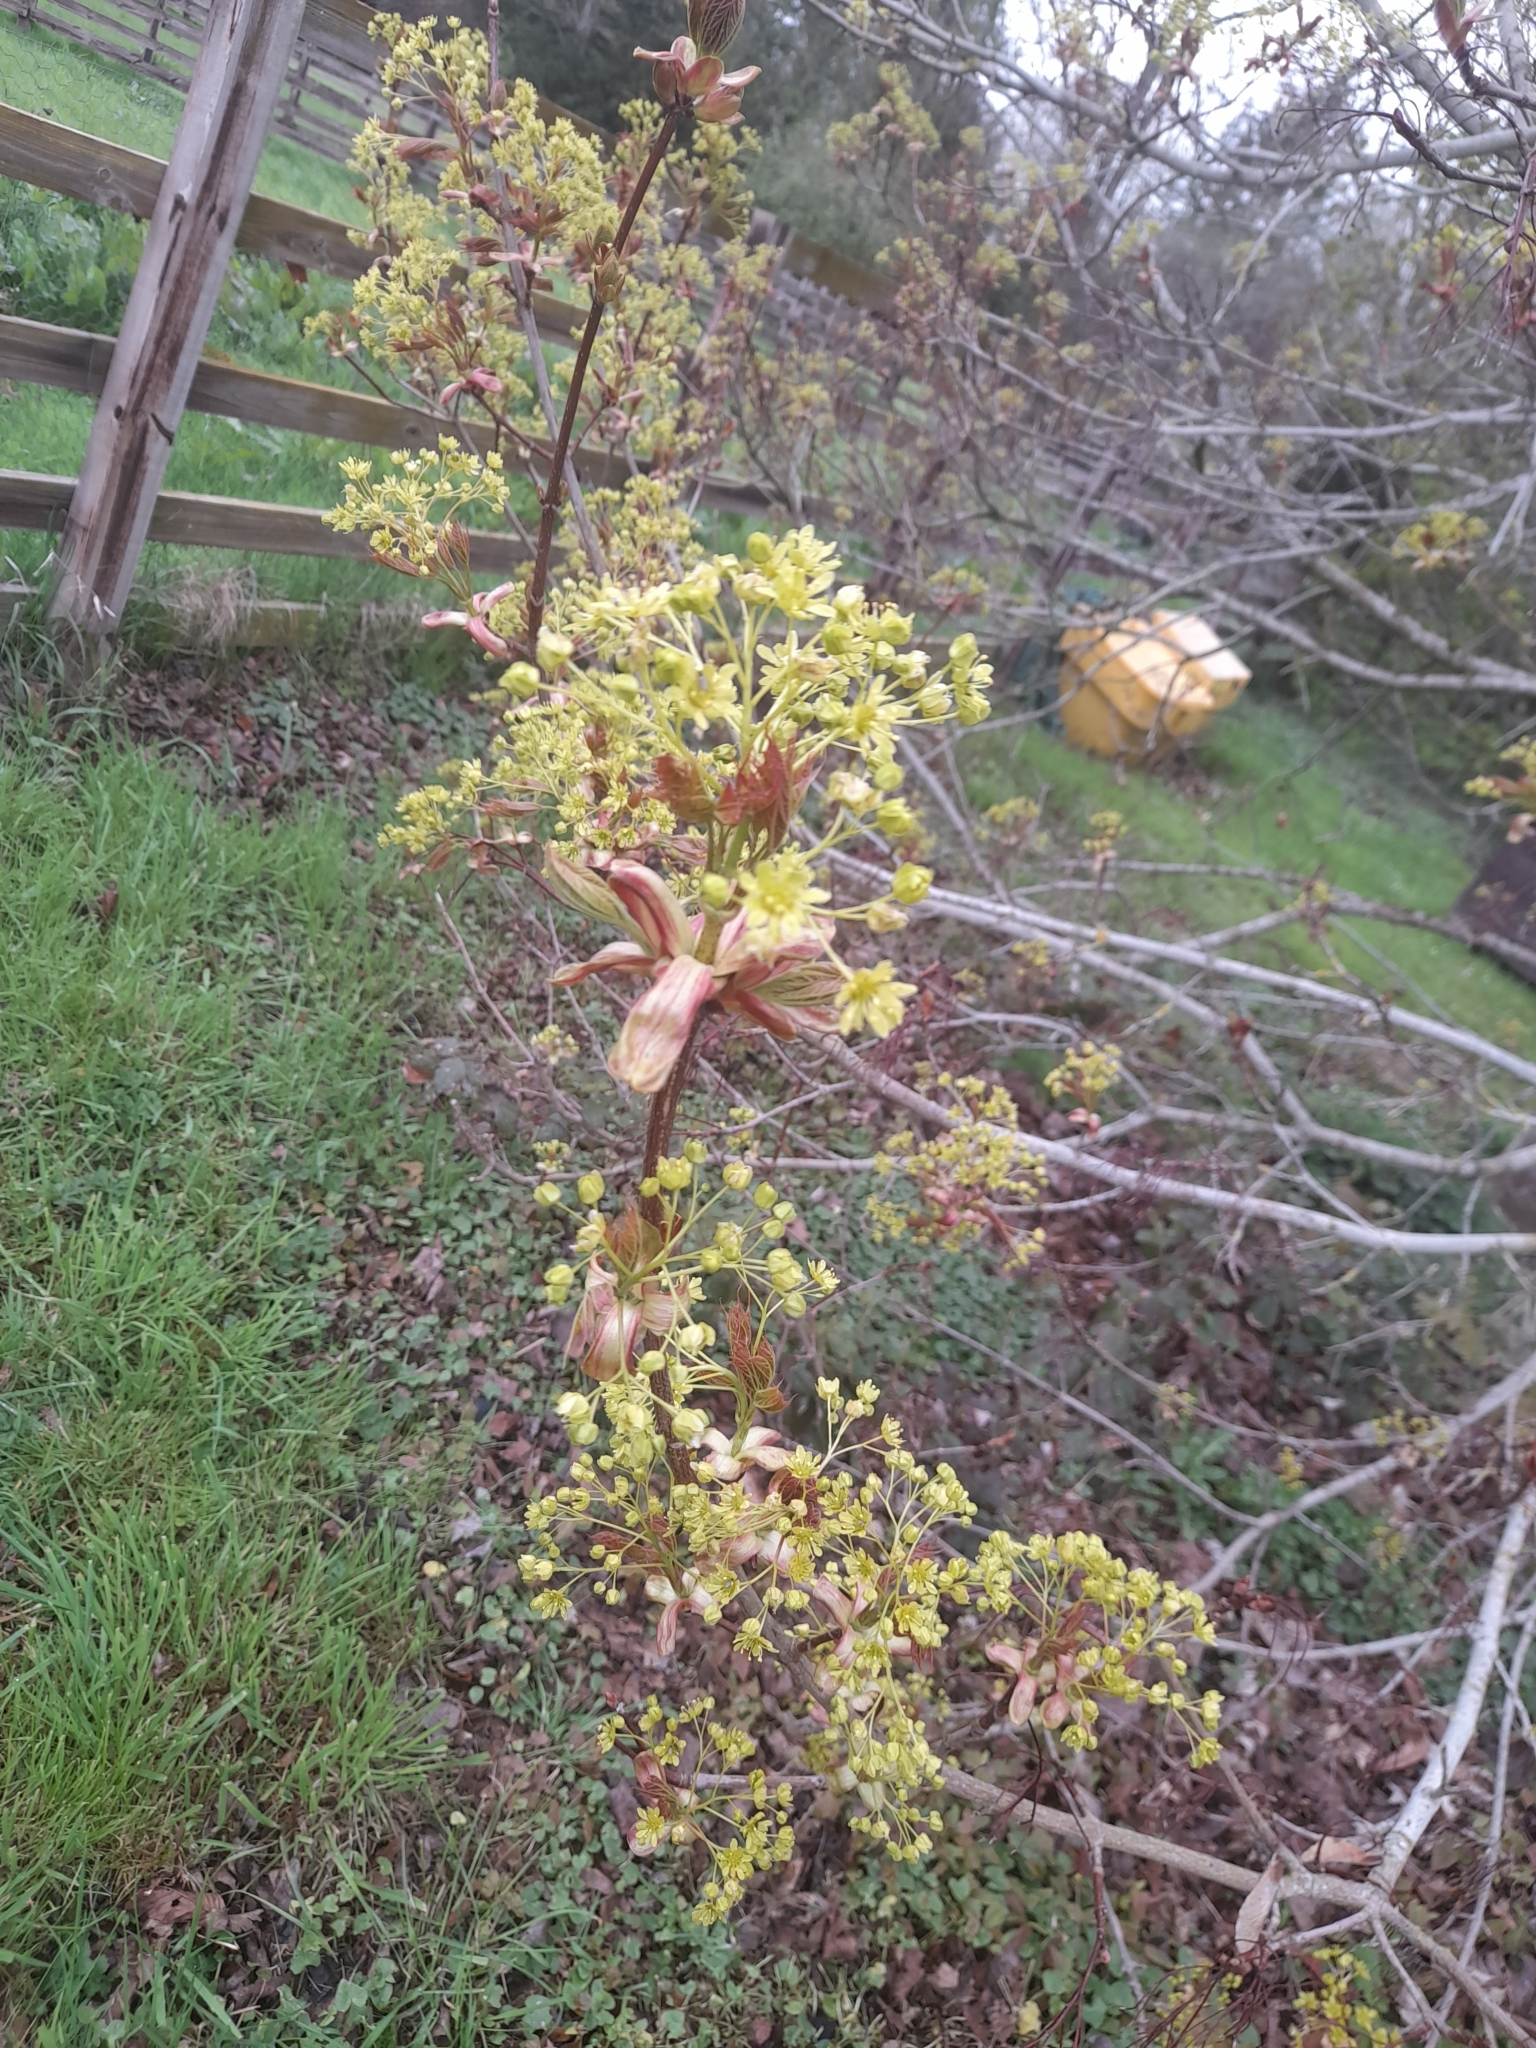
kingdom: Plantae
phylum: Tracheophyta
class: Magnoliopsida
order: Sapindales
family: Sapindaceae
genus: Acer
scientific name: Acer platanoides
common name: Norway maple
